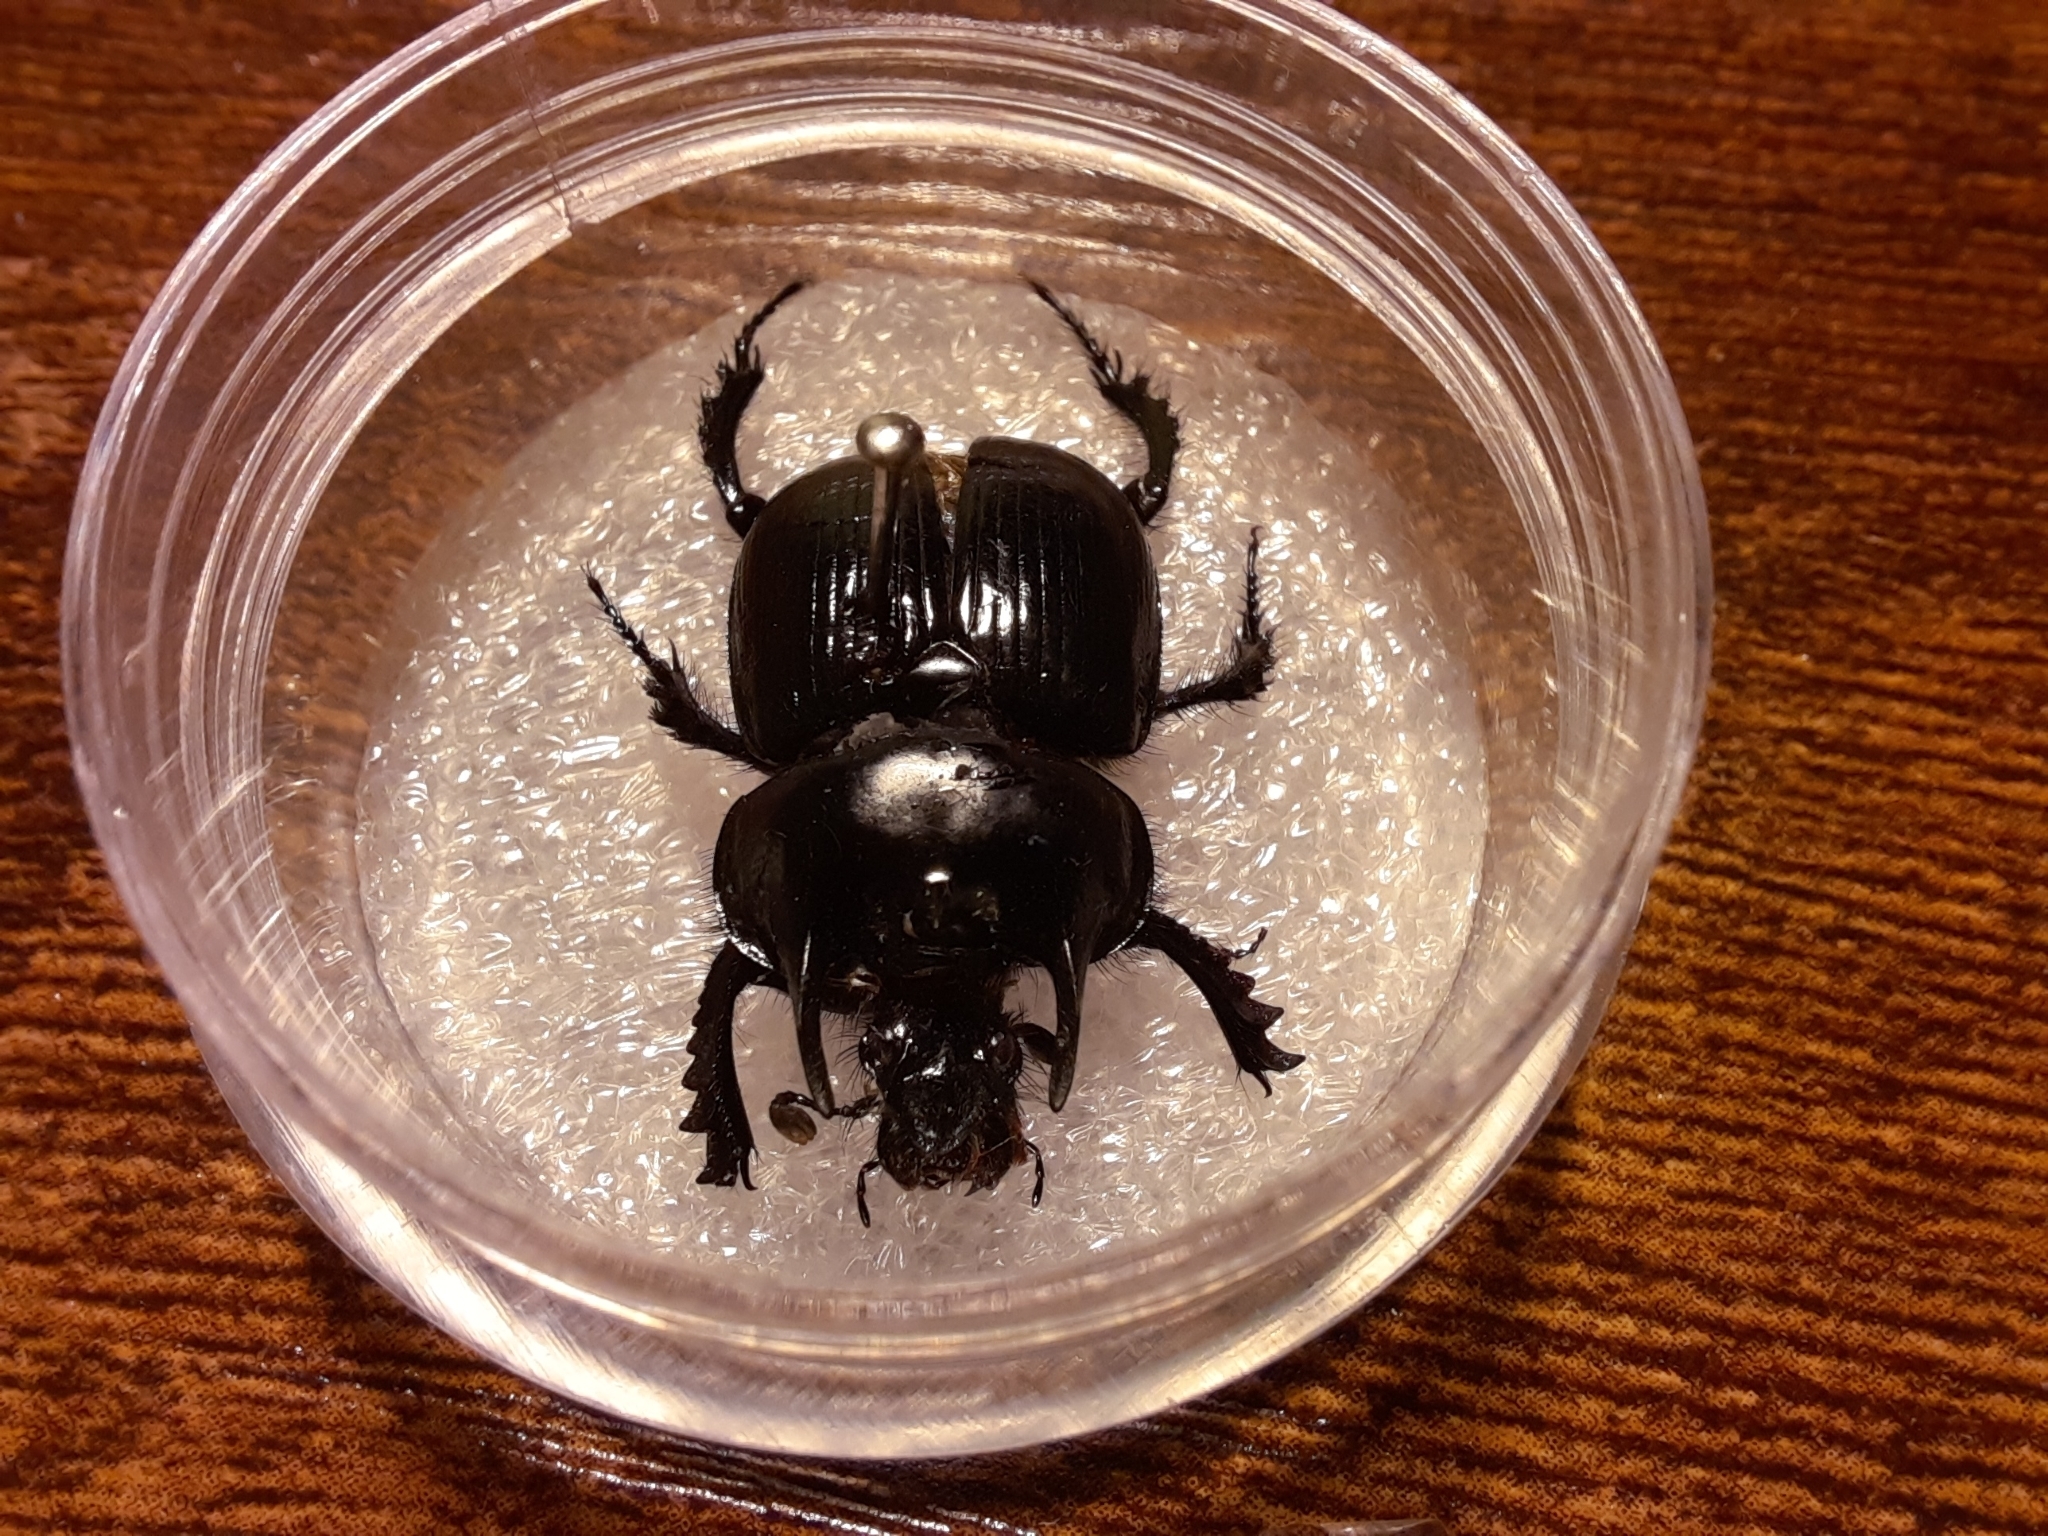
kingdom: Animalia
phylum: Arthropoda
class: Insecta
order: Coleoptera
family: Geotrupidae
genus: Typhaeus
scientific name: Typhaeus typhoeus
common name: Minotaur beetle
